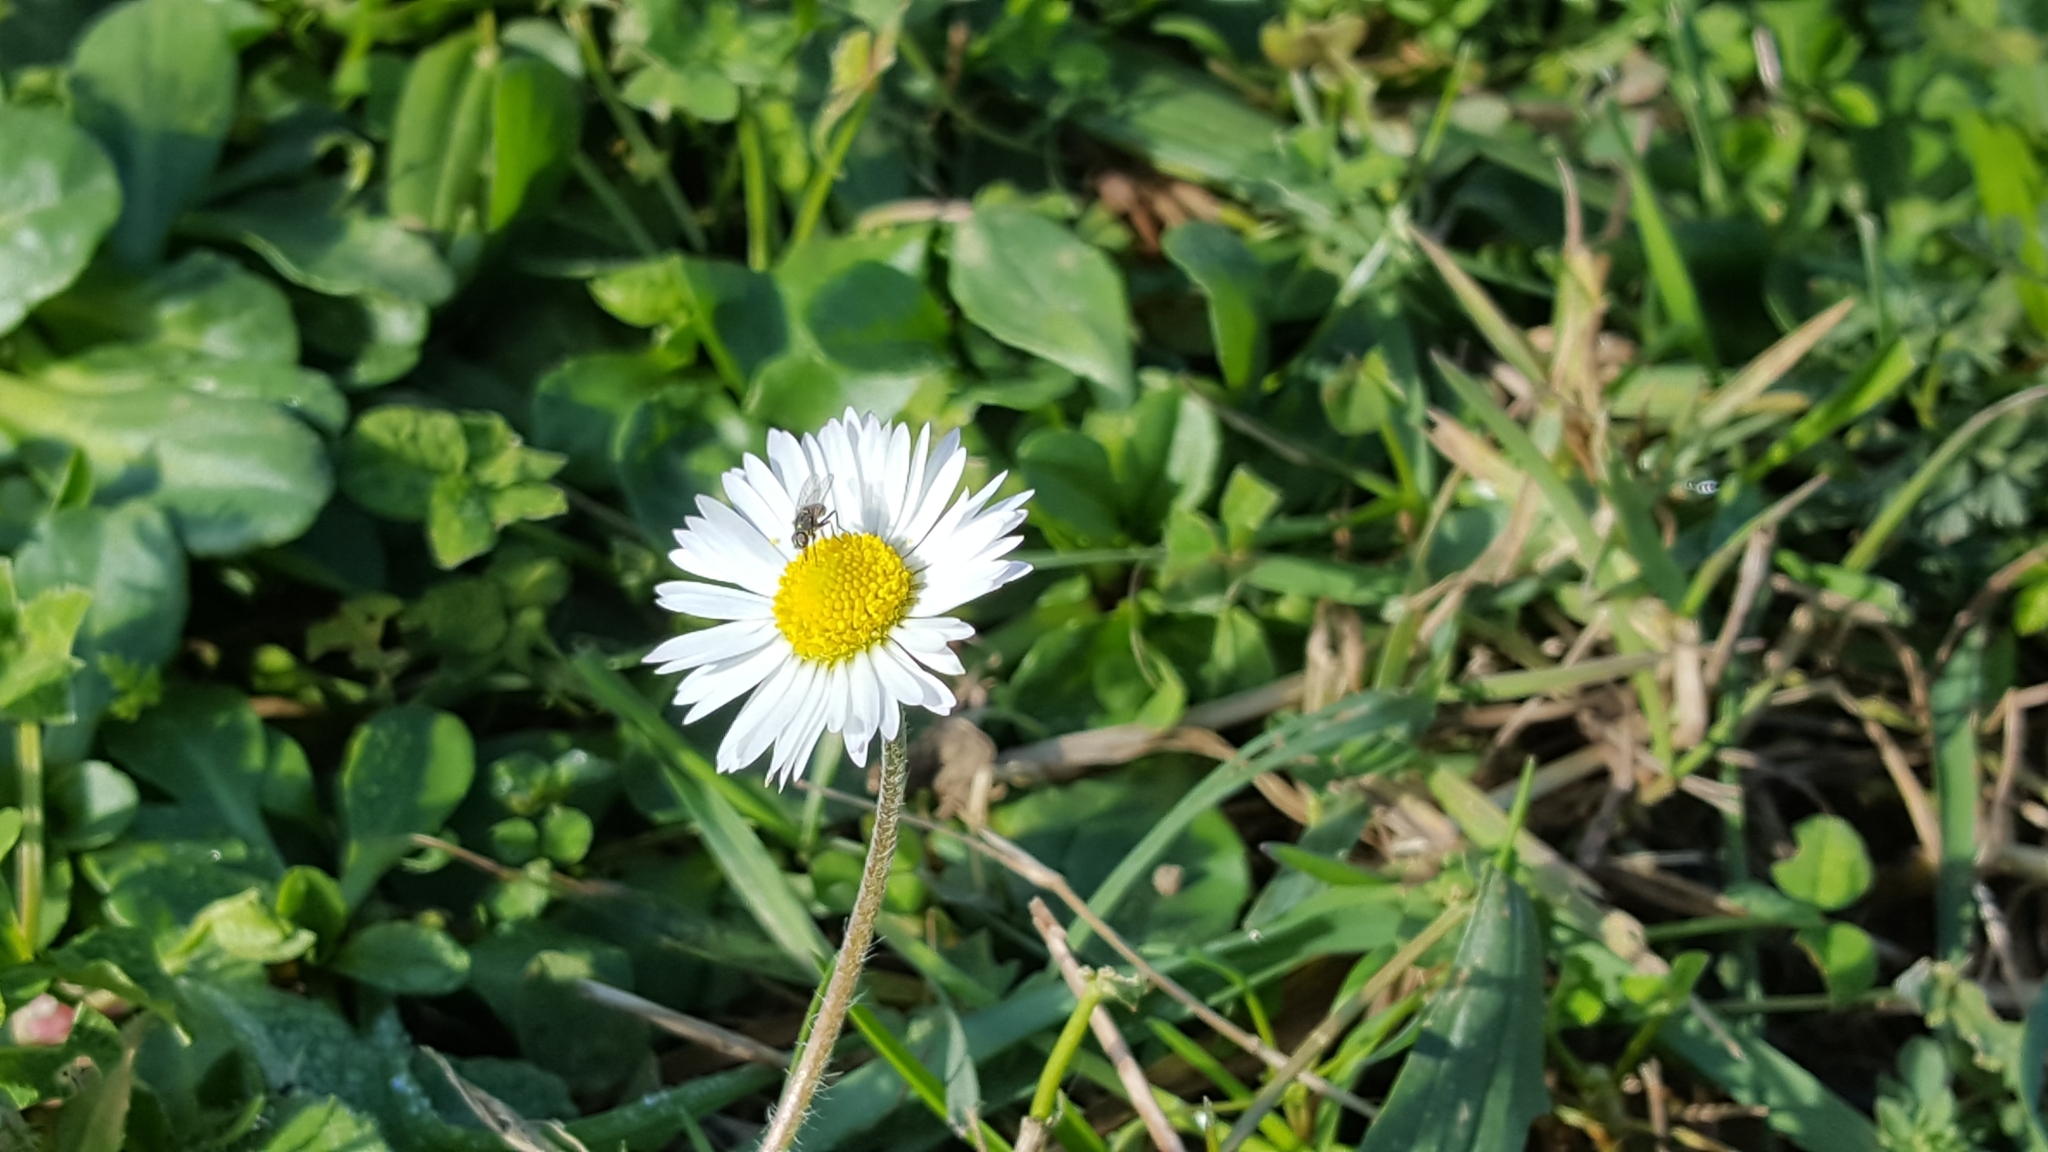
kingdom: Plantae
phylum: Tracheophyta
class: Magnoliopsida
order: Asterales
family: Asteraceae
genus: Bellis
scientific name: Bellis perennis
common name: Lawndaisy
